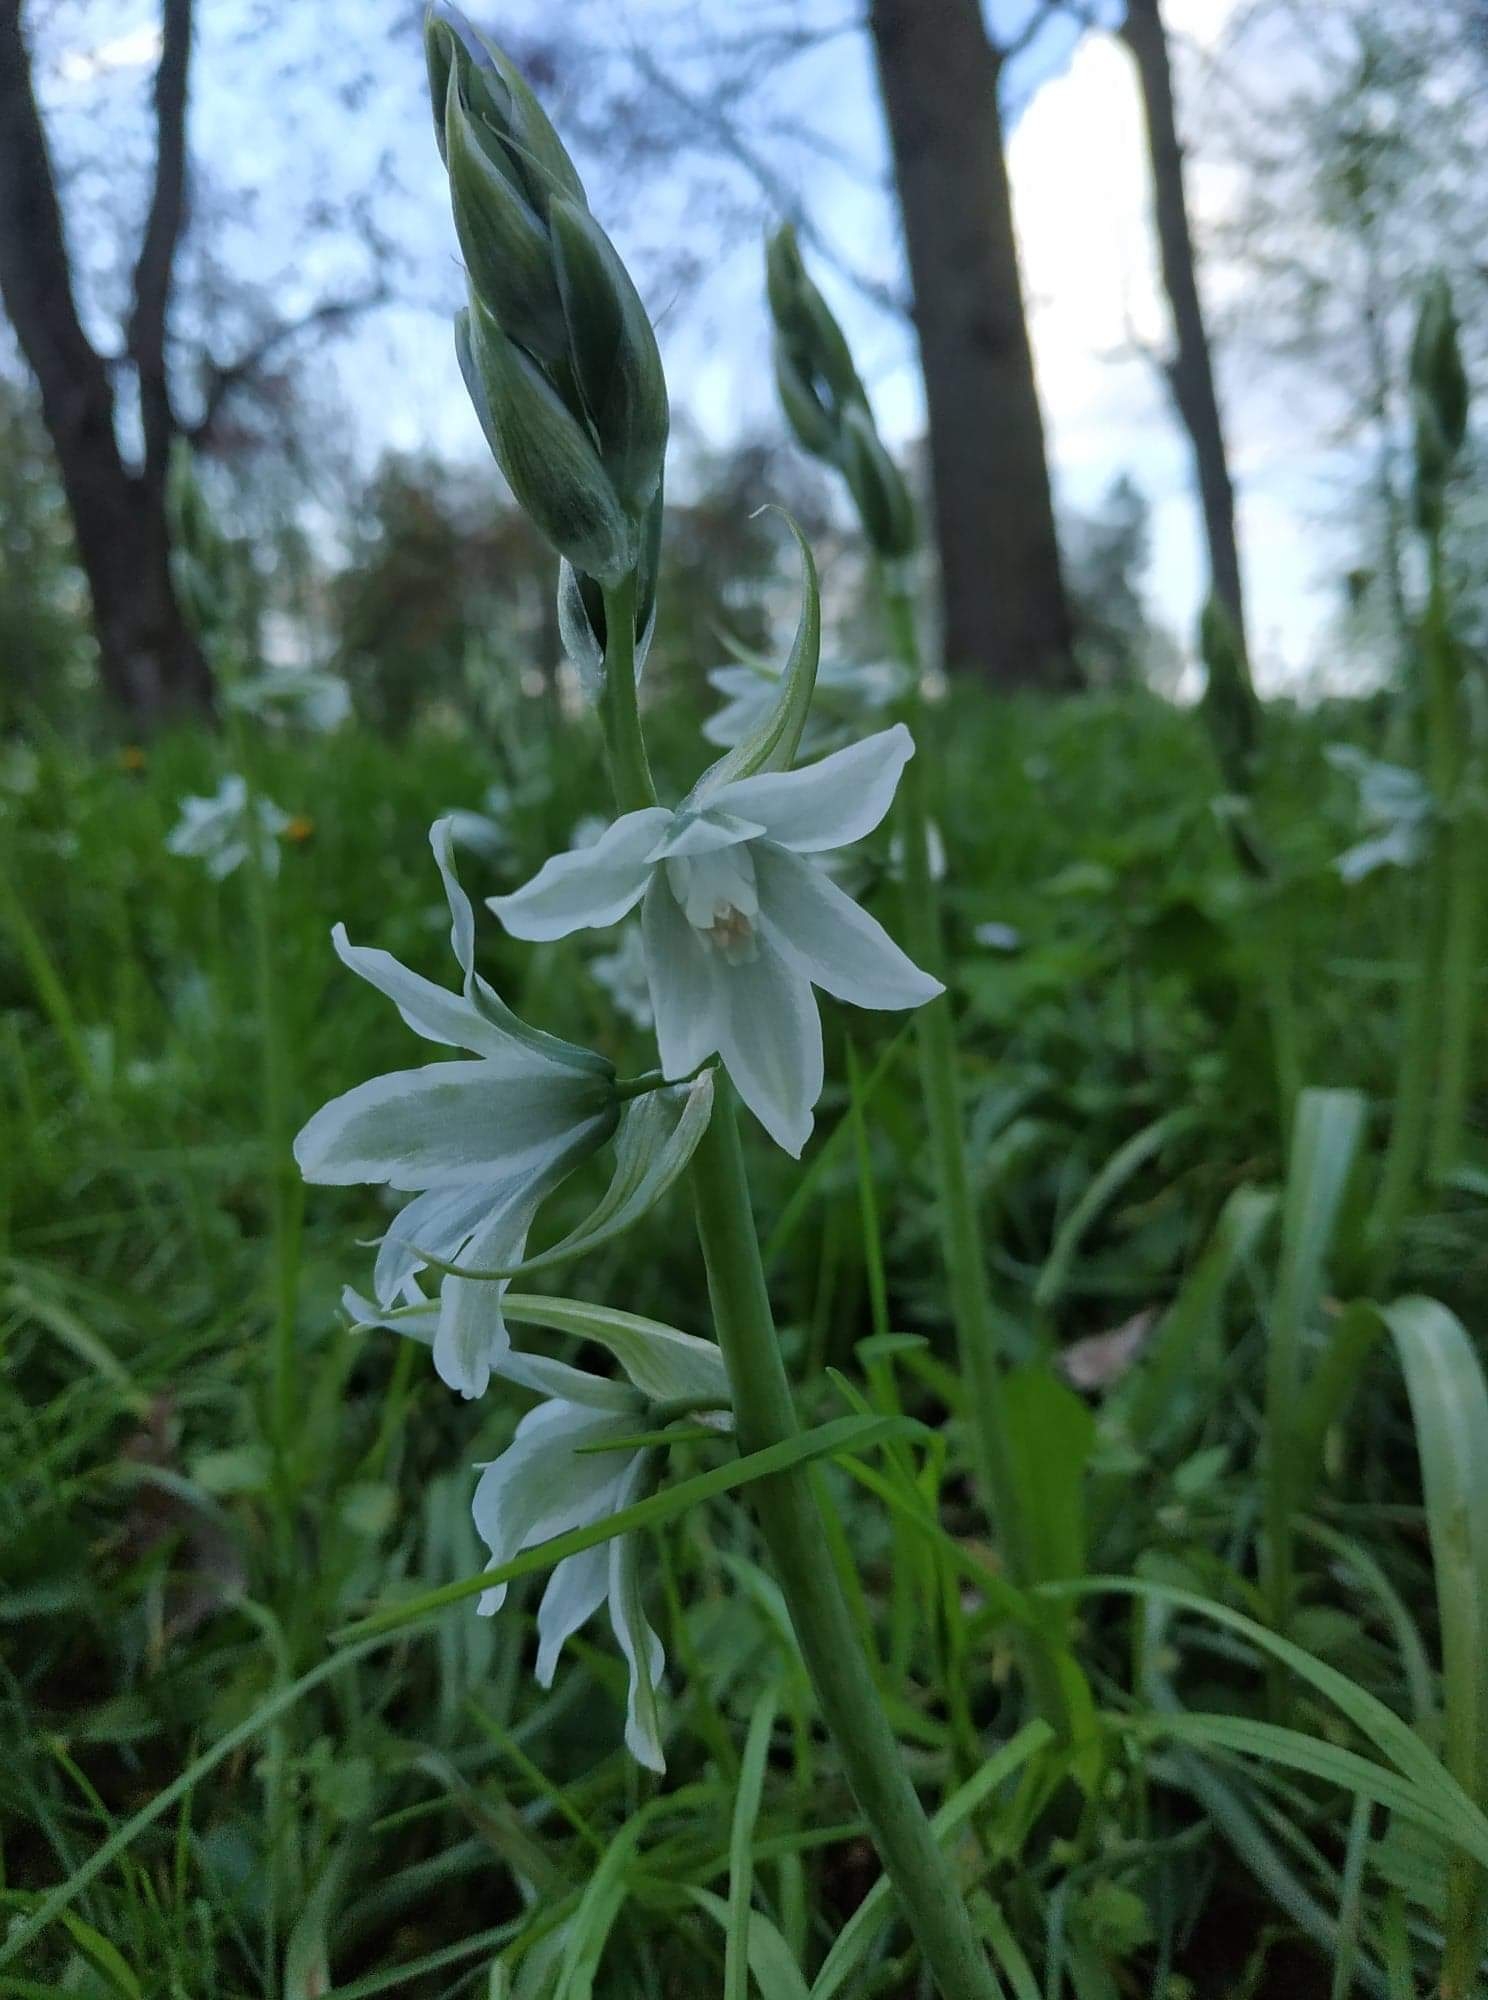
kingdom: Plantae
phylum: Tracheophyta
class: Liliopsida
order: Asparagales
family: Asparagaceae
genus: Ornithogalum
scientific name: Ornithogalum nutans
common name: Drooping star-of-bethlehem
